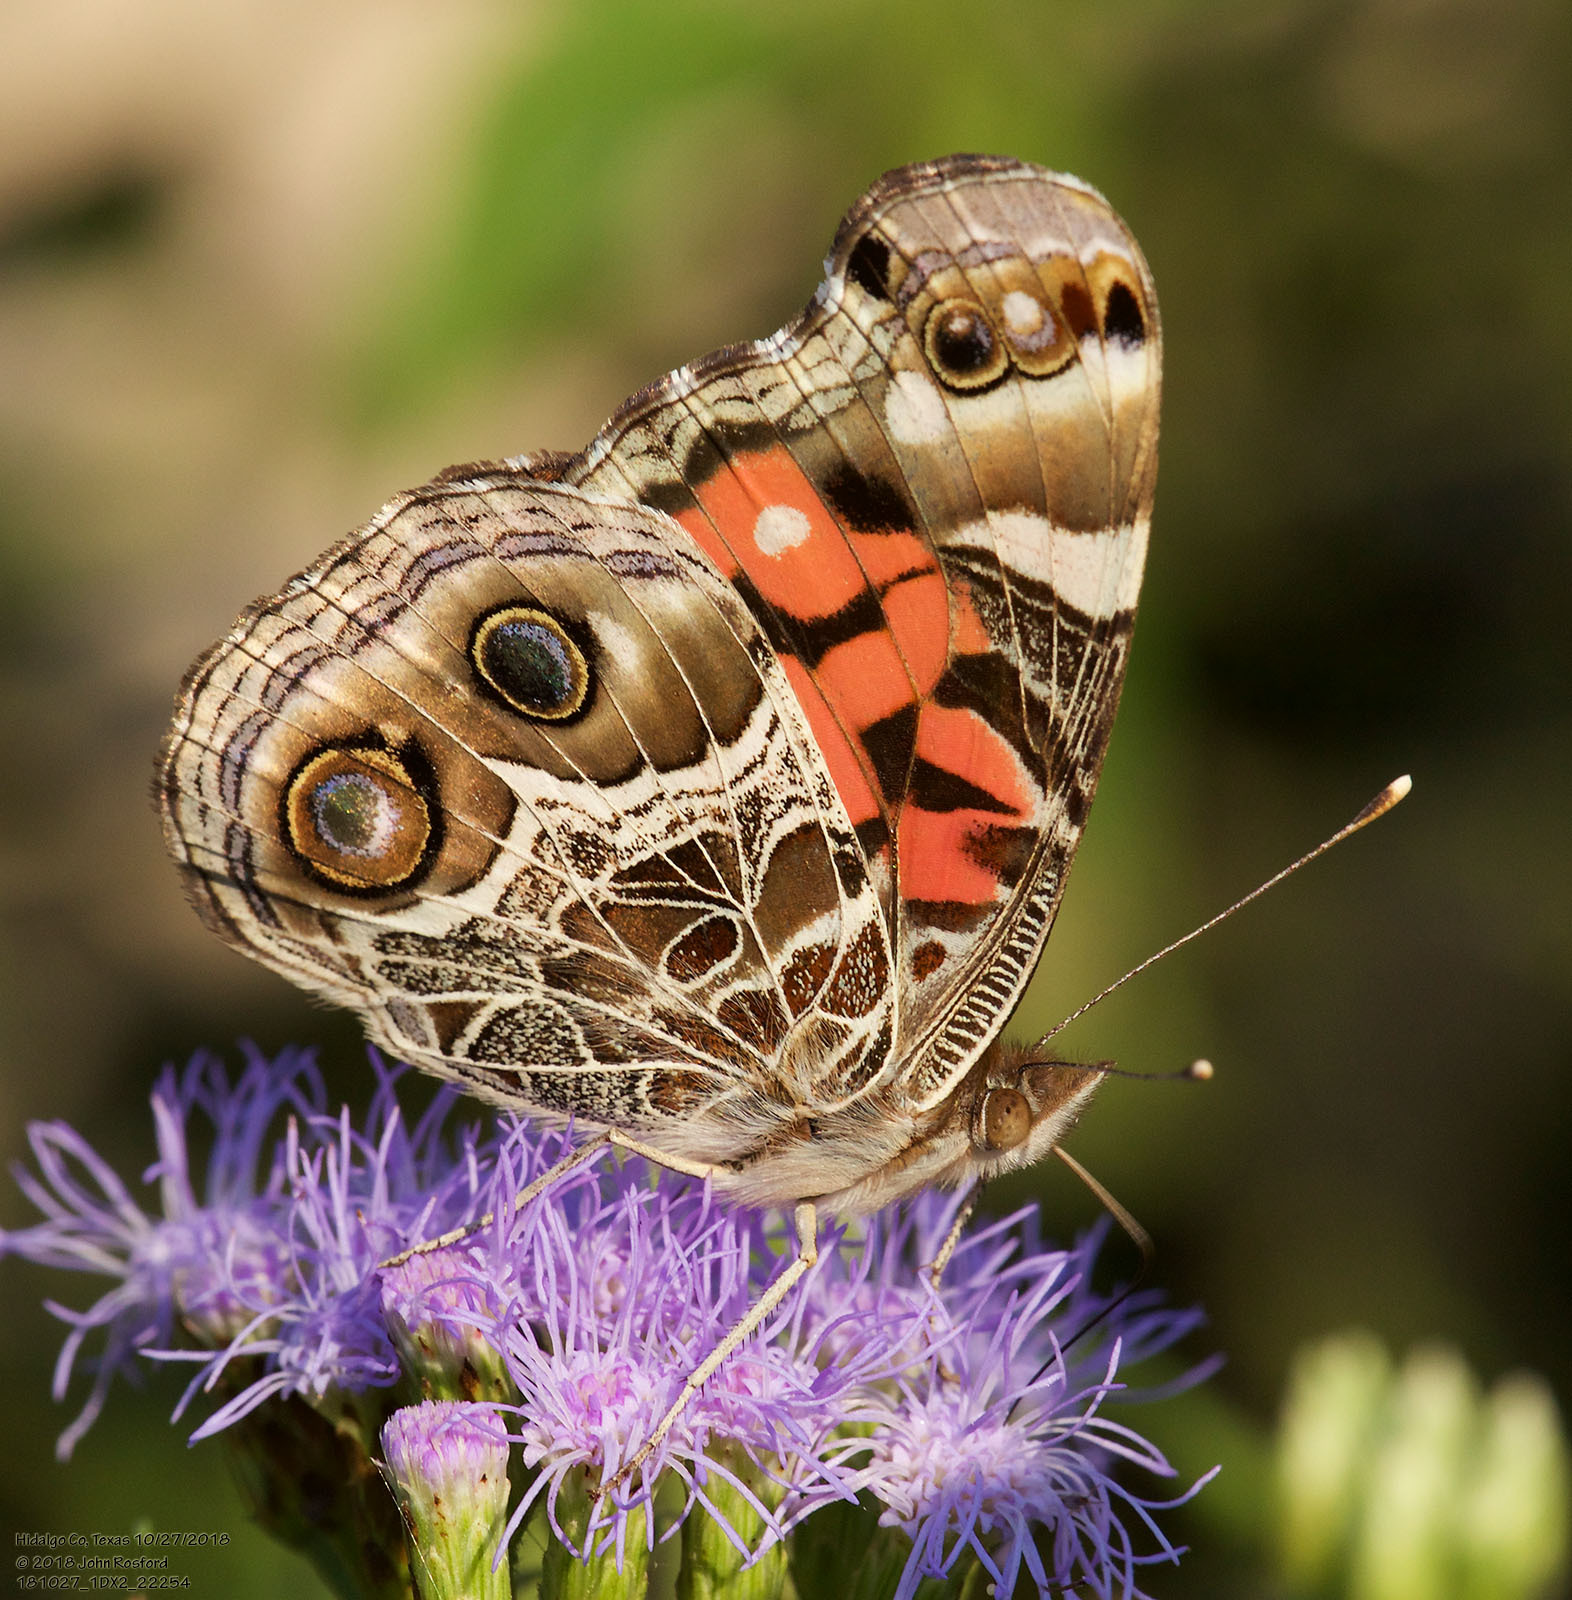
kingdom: Animalia
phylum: Arthropoda
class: Insecta
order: Lepidoptera
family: Nymphalidae
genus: Vanessa
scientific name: Vanessa virginiensis
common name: American lady
